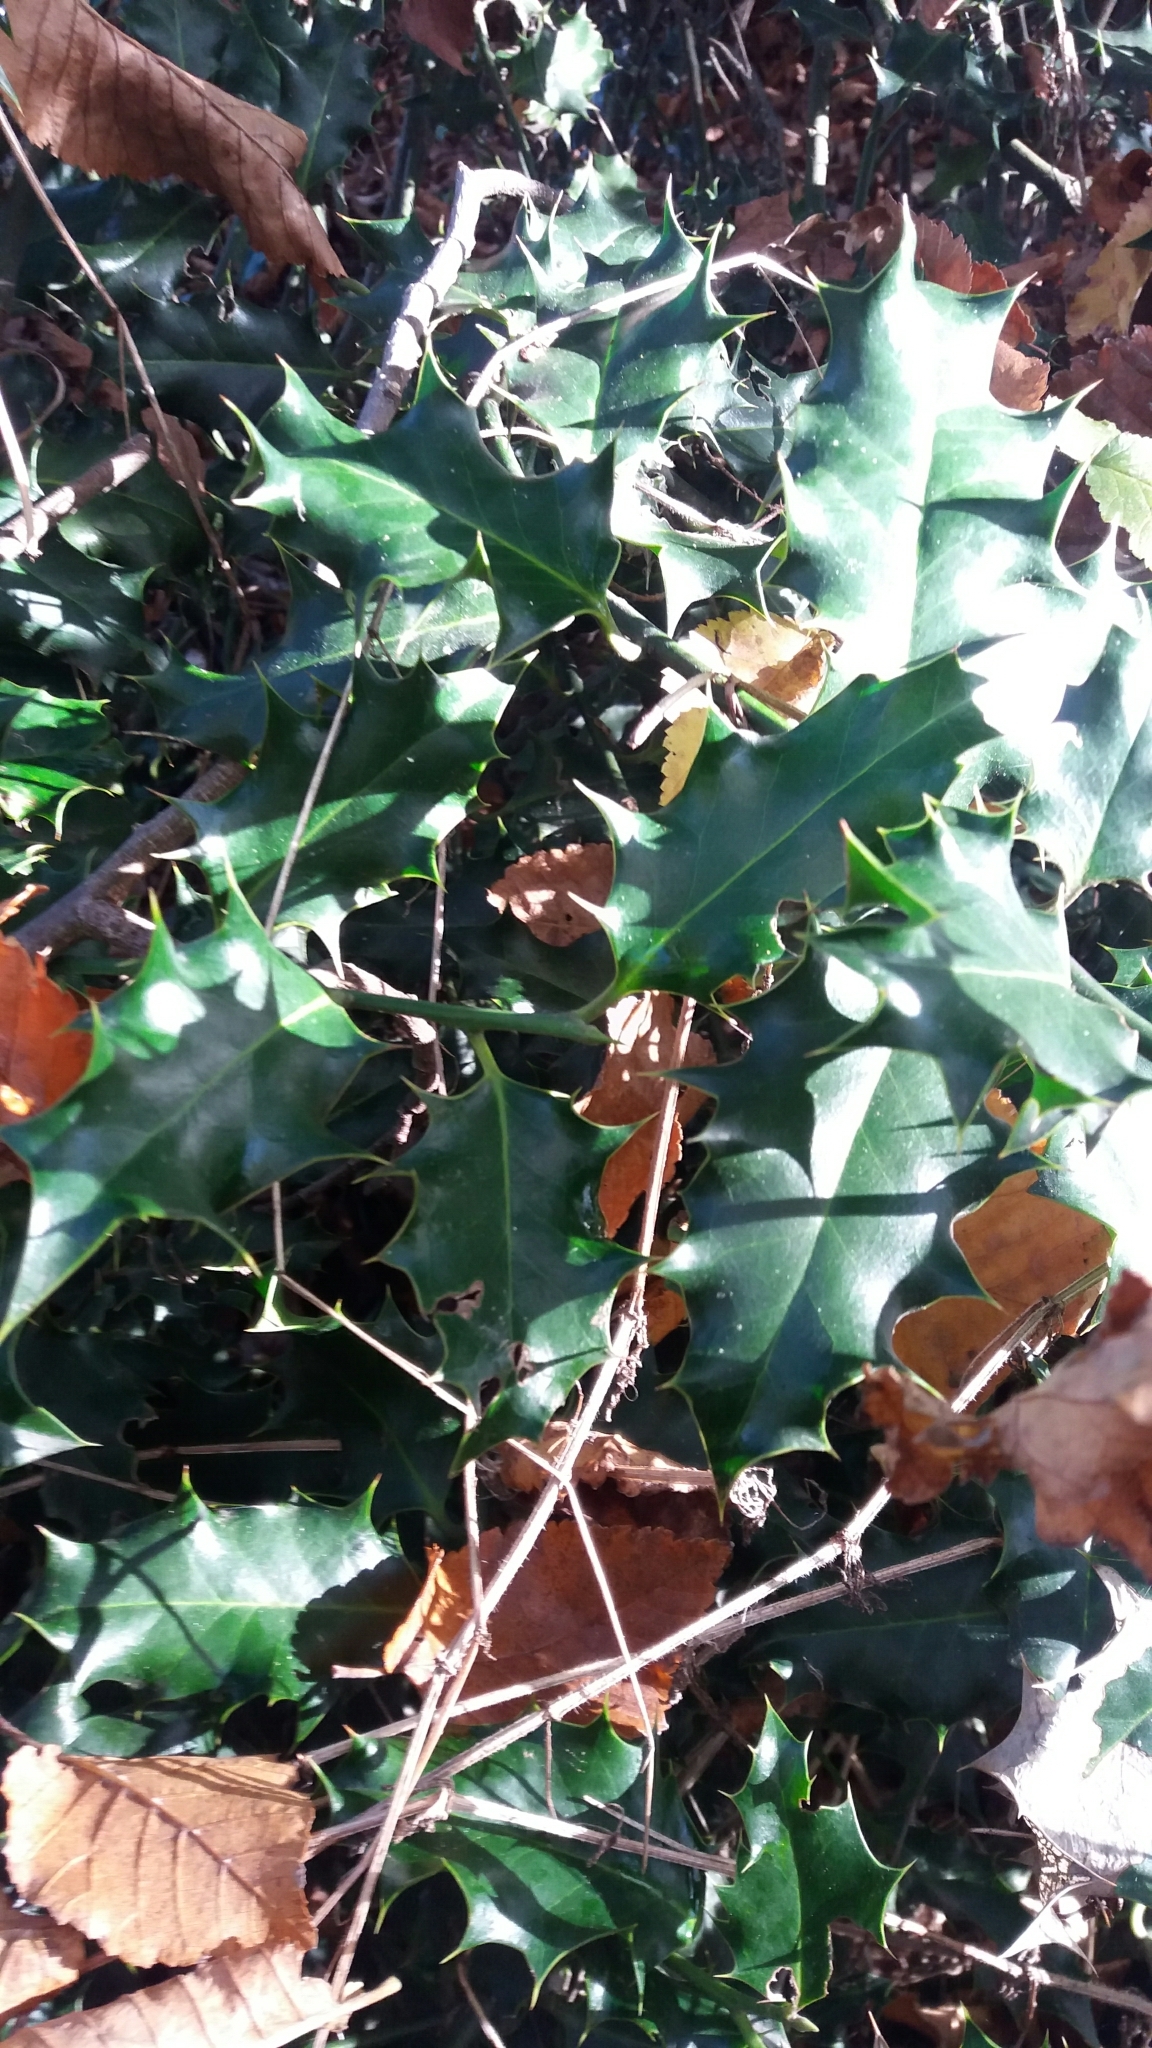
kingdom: Plantae
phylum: Tracheophyta
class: Magnoliopsida
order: Aquifoliales
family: Aquifoliaceae
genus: Ilex
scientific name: Ilex aquifolium
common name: English holly
